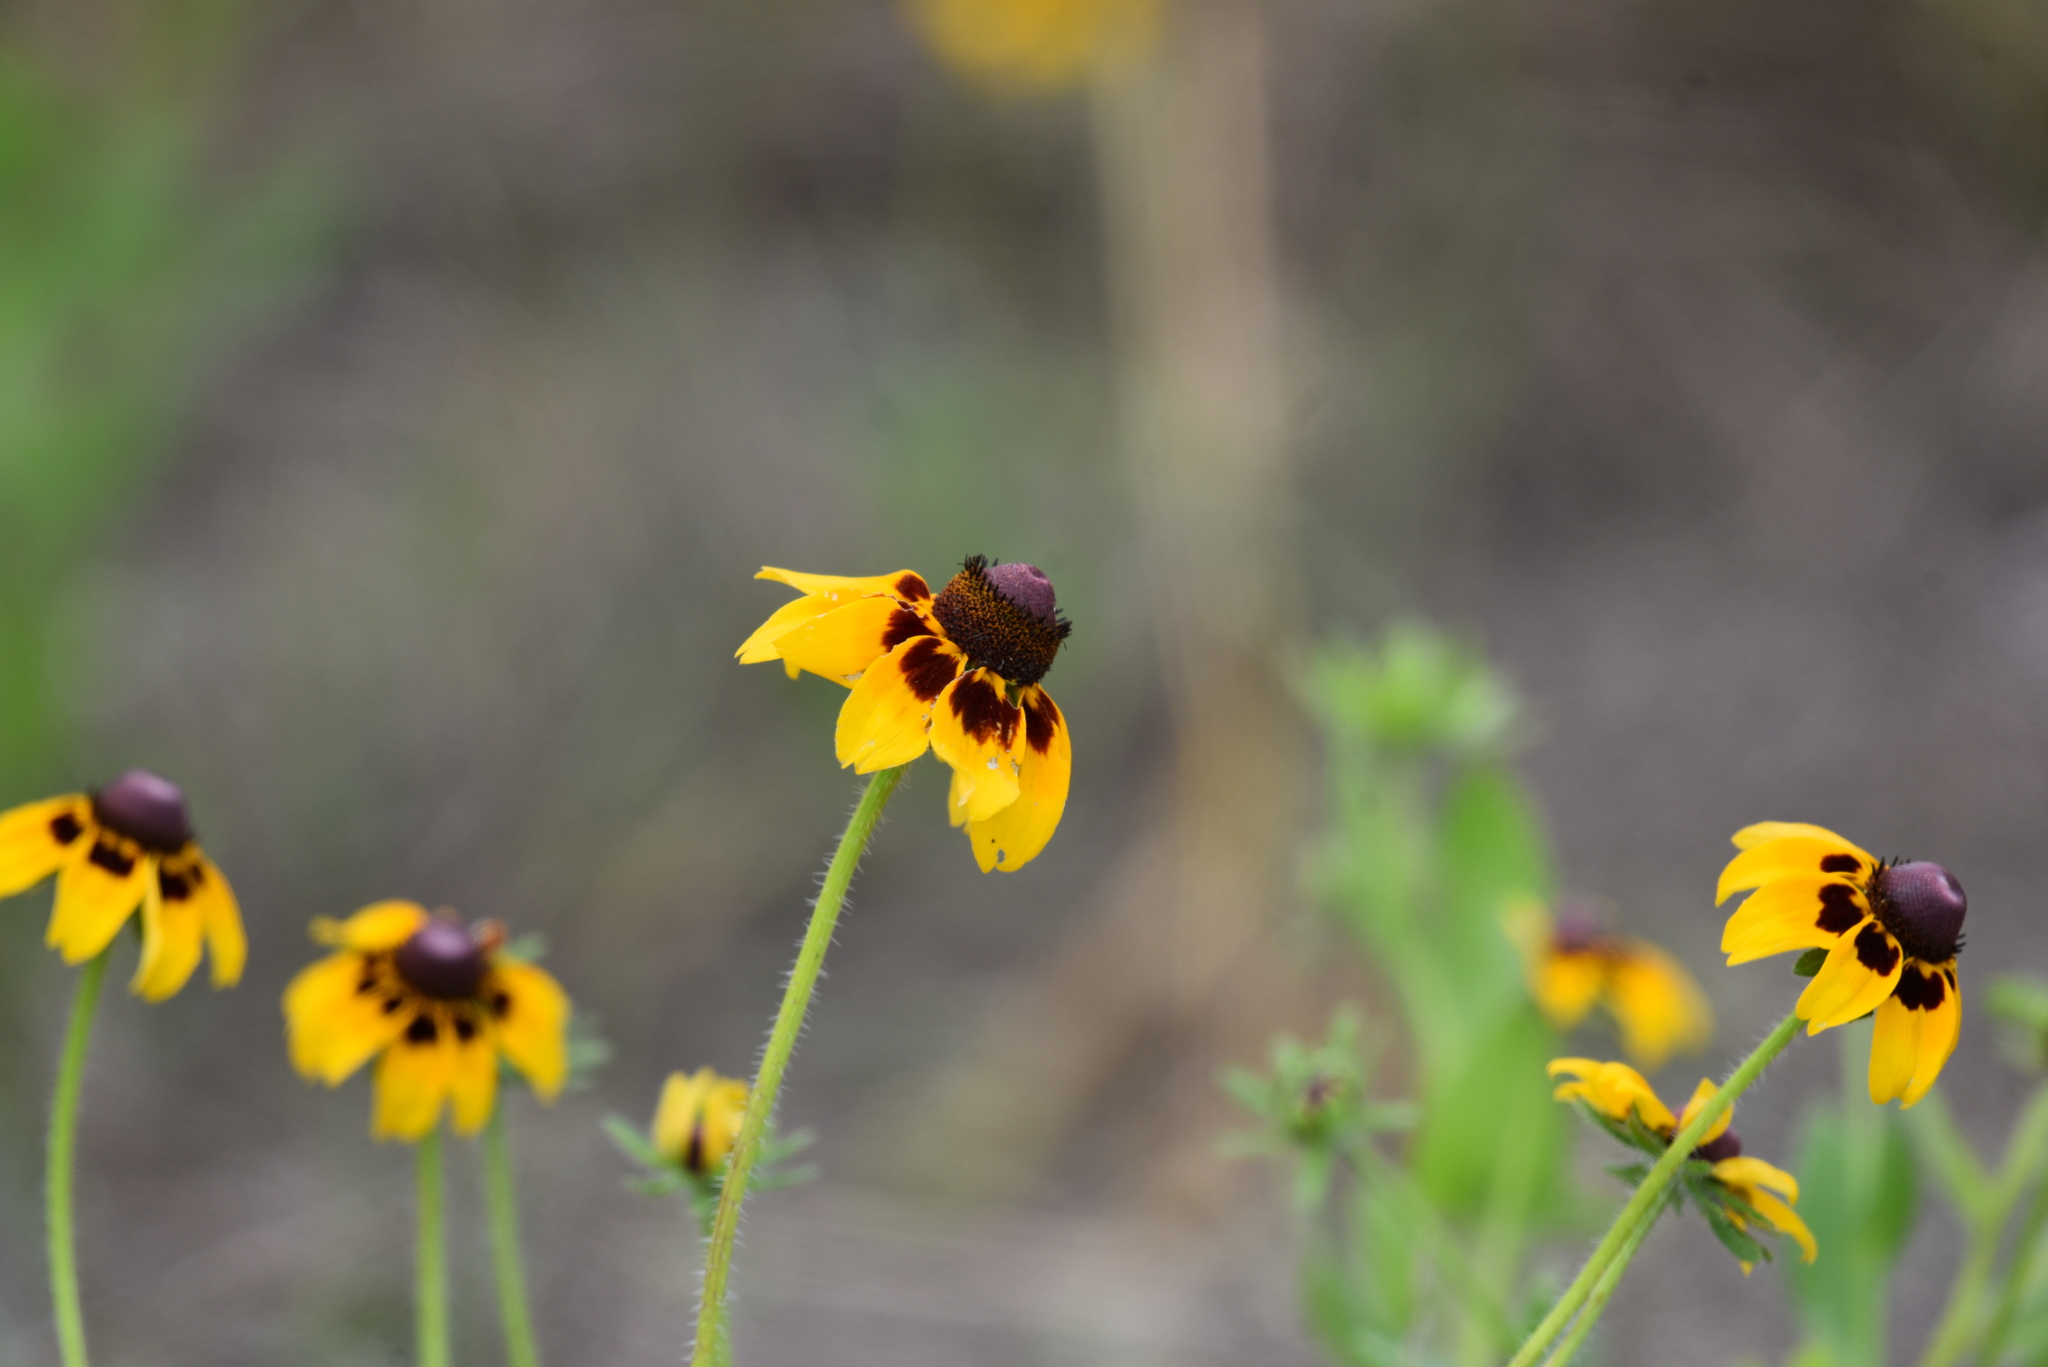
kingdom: Plantae
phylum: Tracheophyta
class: Magnoliopsida
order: Asterales
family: Asteraceae
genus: Rudbeckia
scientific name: Rudbeckia hirta
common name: Black-eyed-susan
